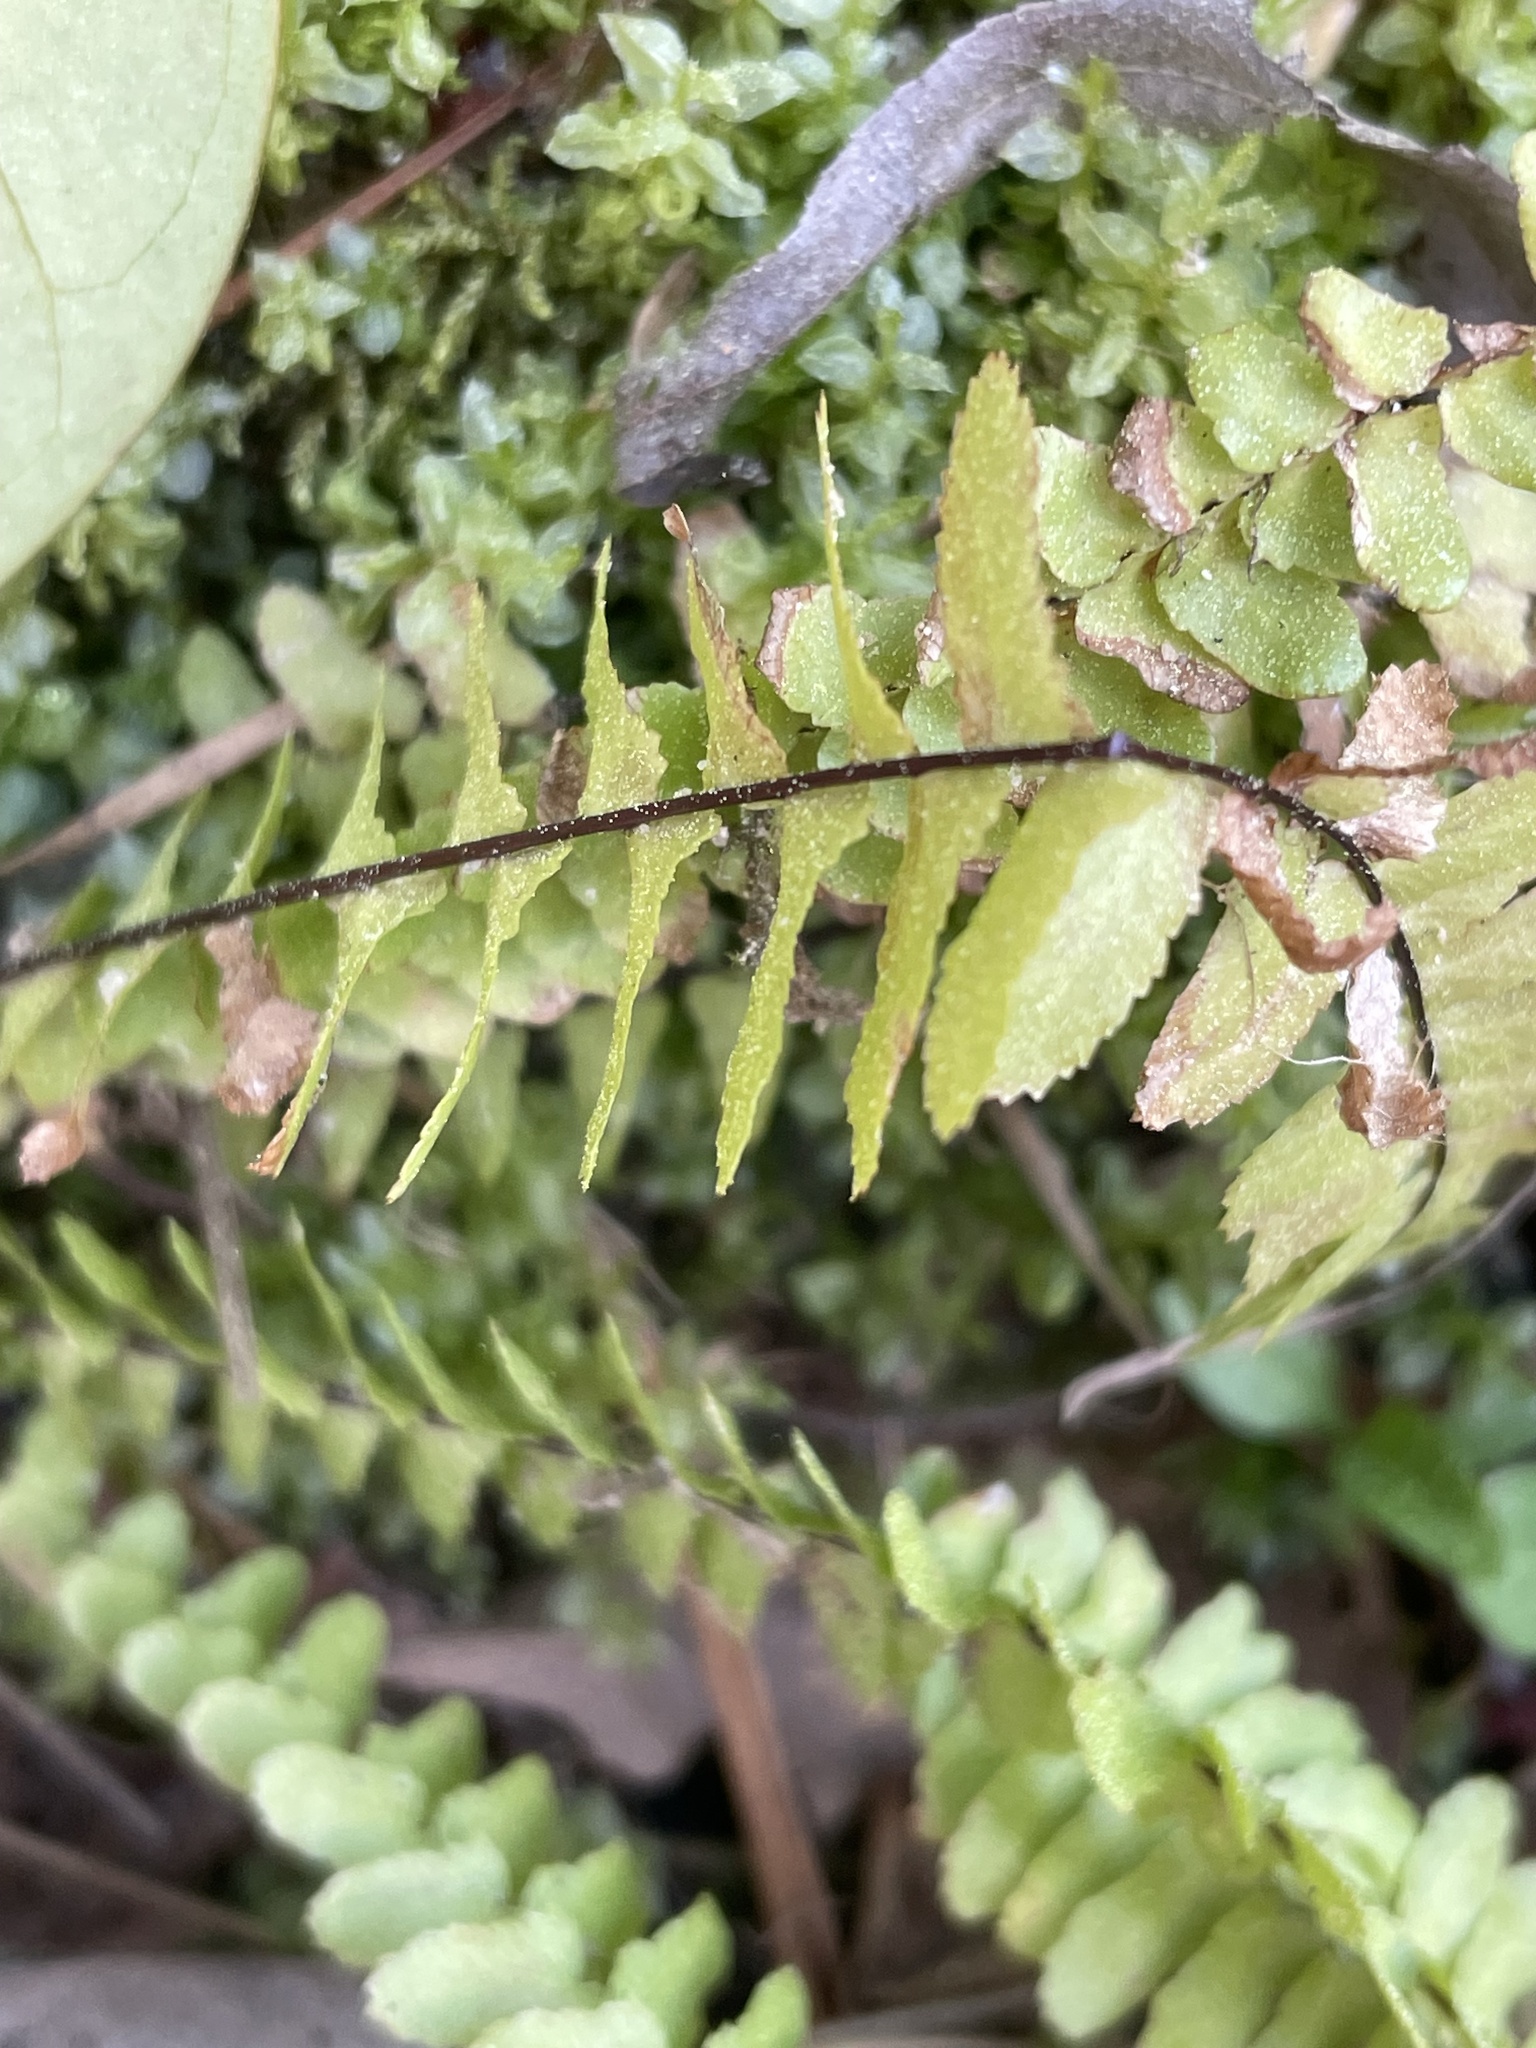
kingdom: Plantae
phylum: Tracheophyta
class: Polypodiopsida
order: Polypodiales
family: Aspleniaceae
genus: Asplenium
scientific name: Asplenium platyneuron
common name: Ebony spleenwort
